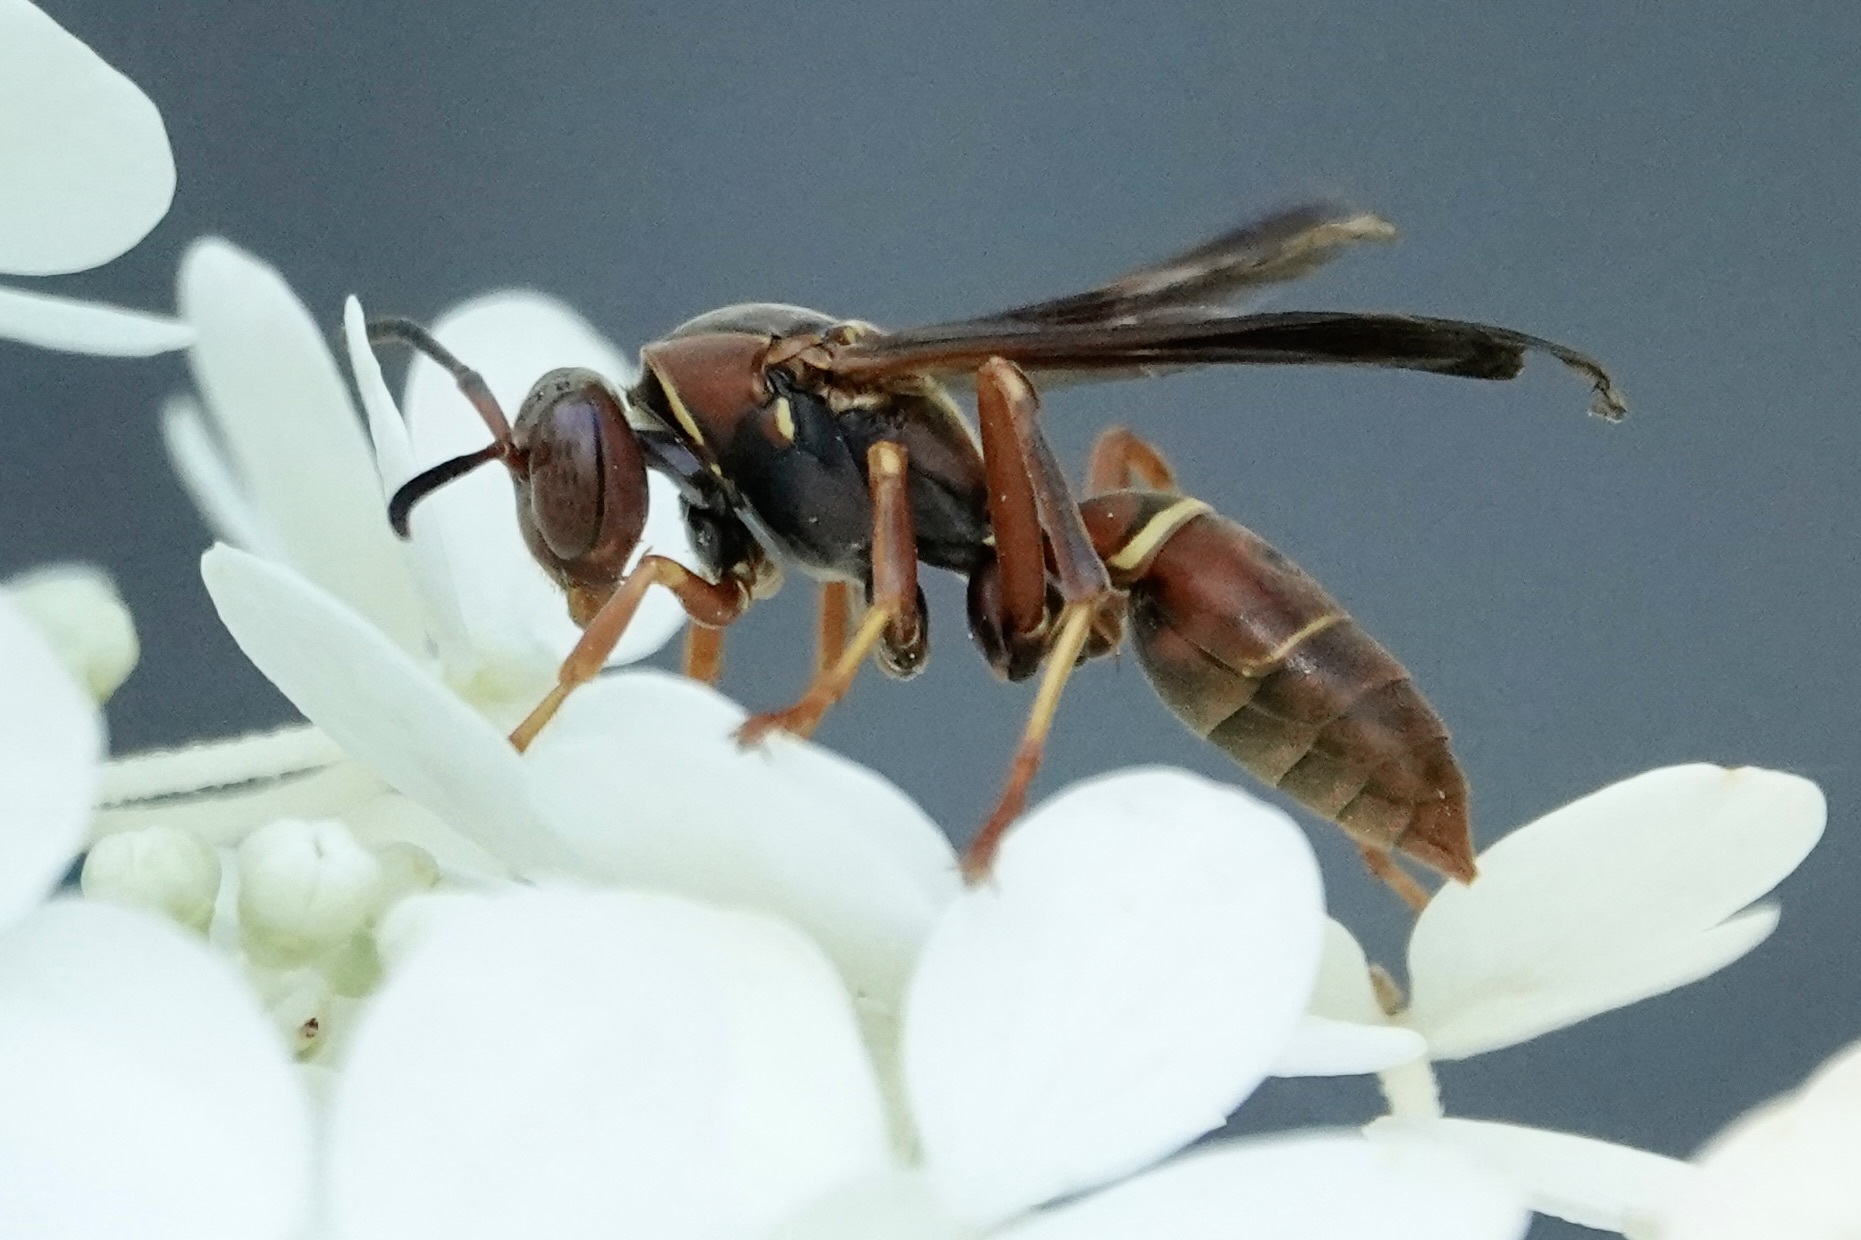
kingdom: Animalia
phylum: Arthropoda
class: Insecta
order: Hymenoptera
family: Eumenidae
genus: Polistes
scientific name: Polistes fuscatus
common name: Dark paper wasp
